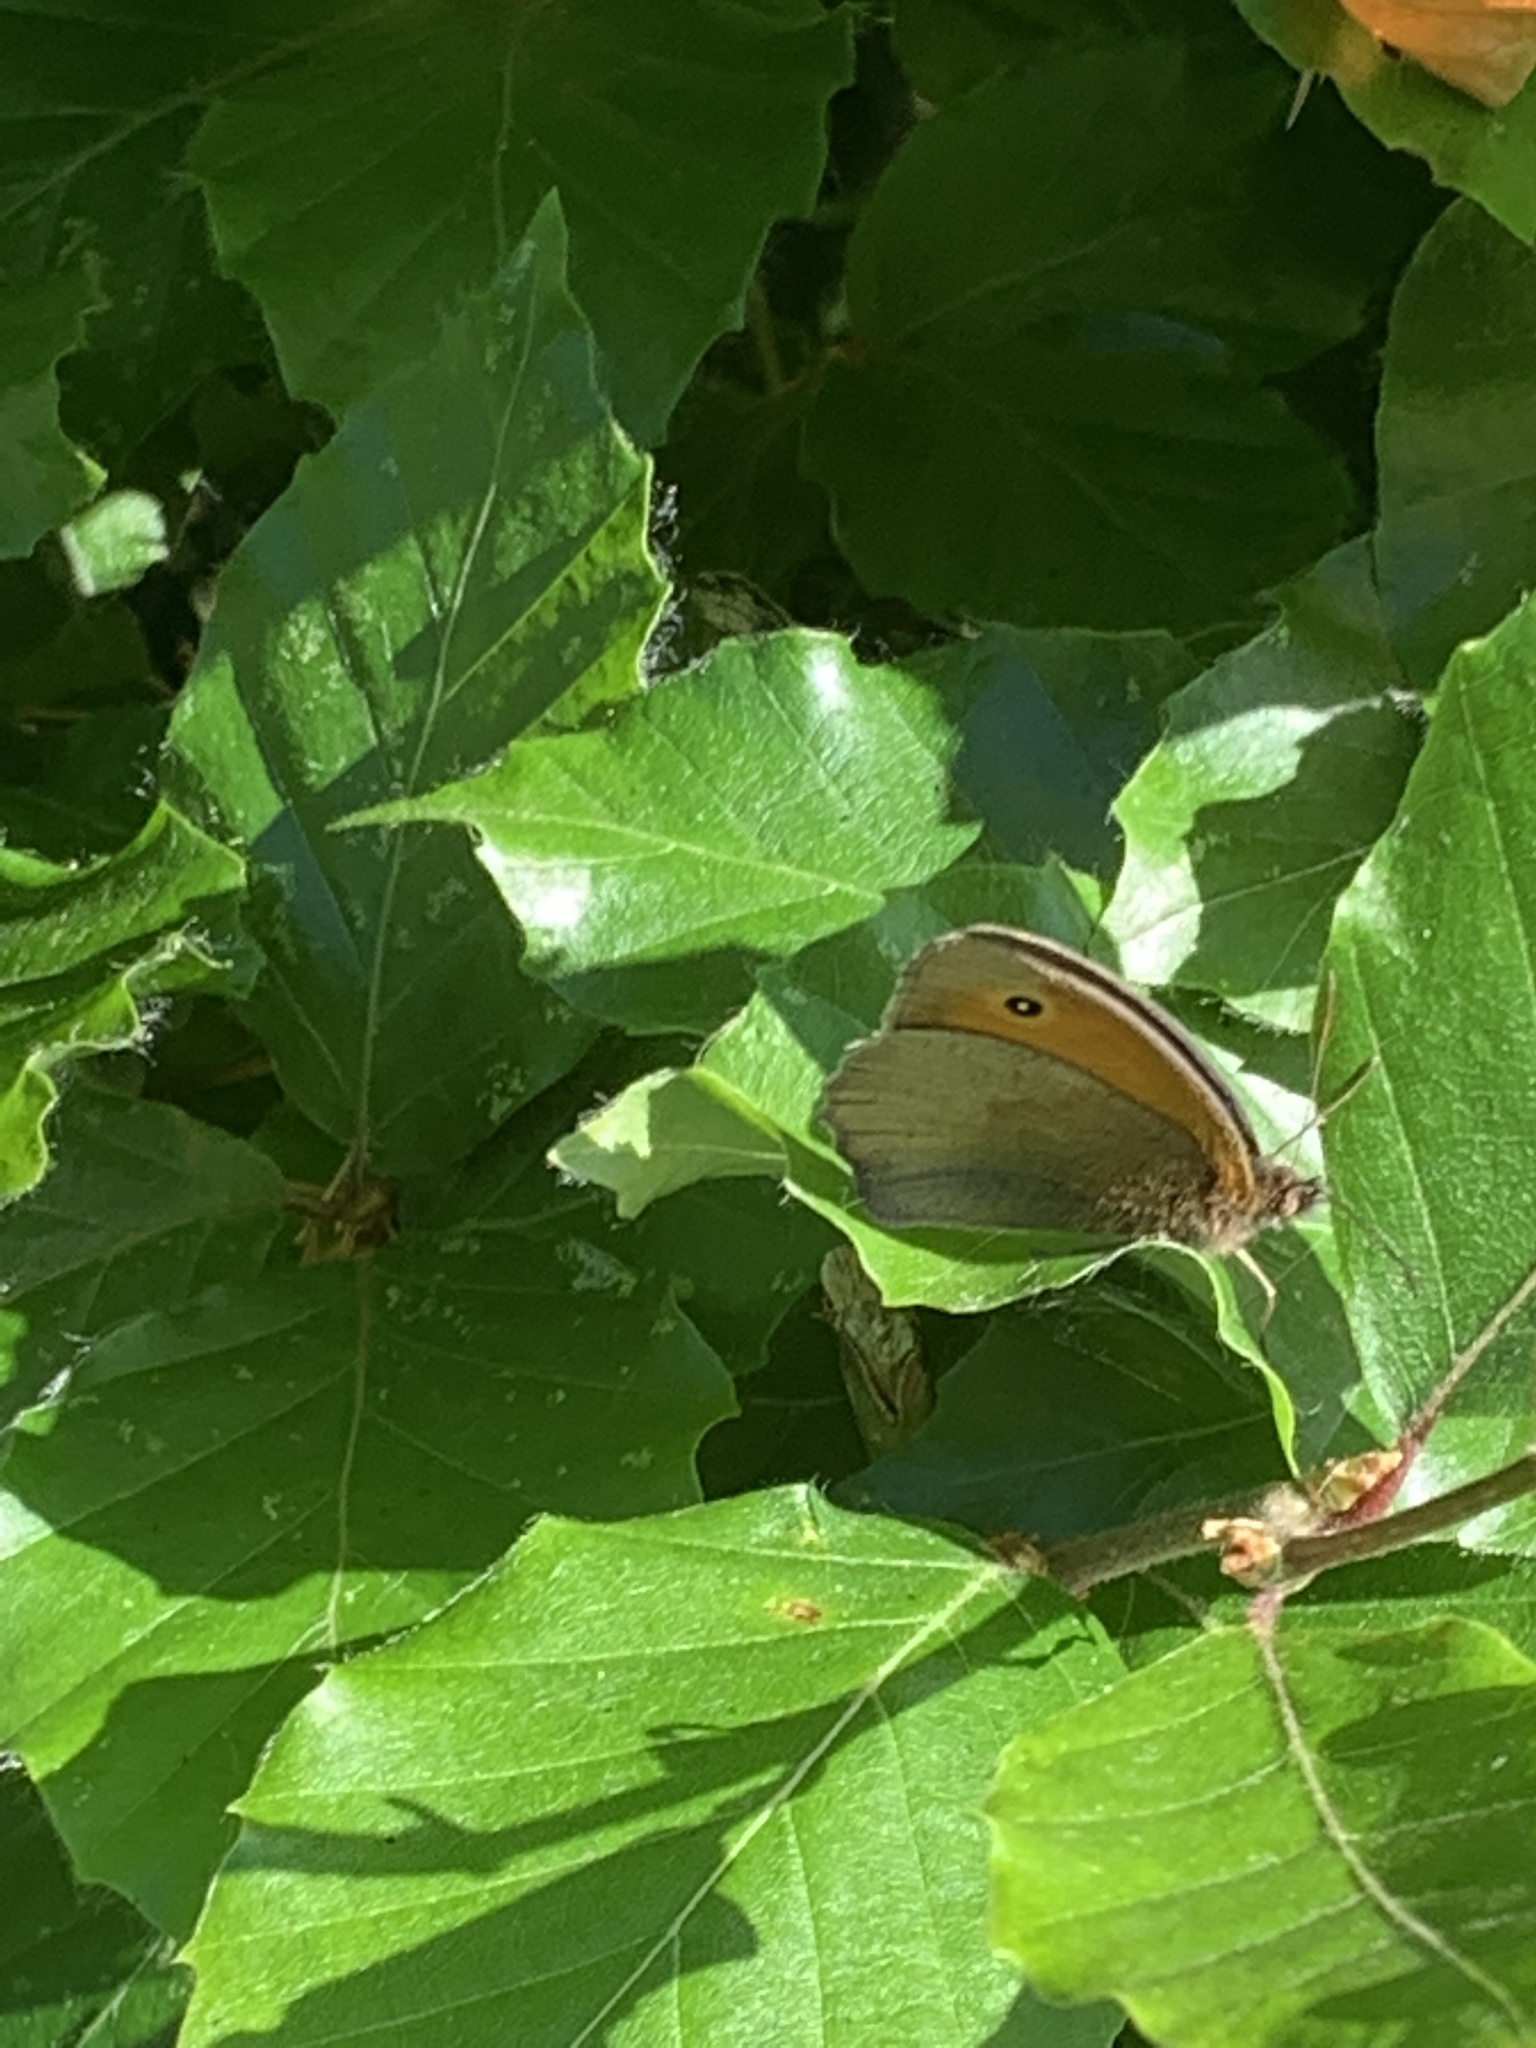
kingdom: Animalia
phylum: Arthropoda
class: Insecta
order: Lepidoptera
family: Nymphalidae
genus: Maniola
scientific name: Maniola jurtina
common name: Meadow brown
